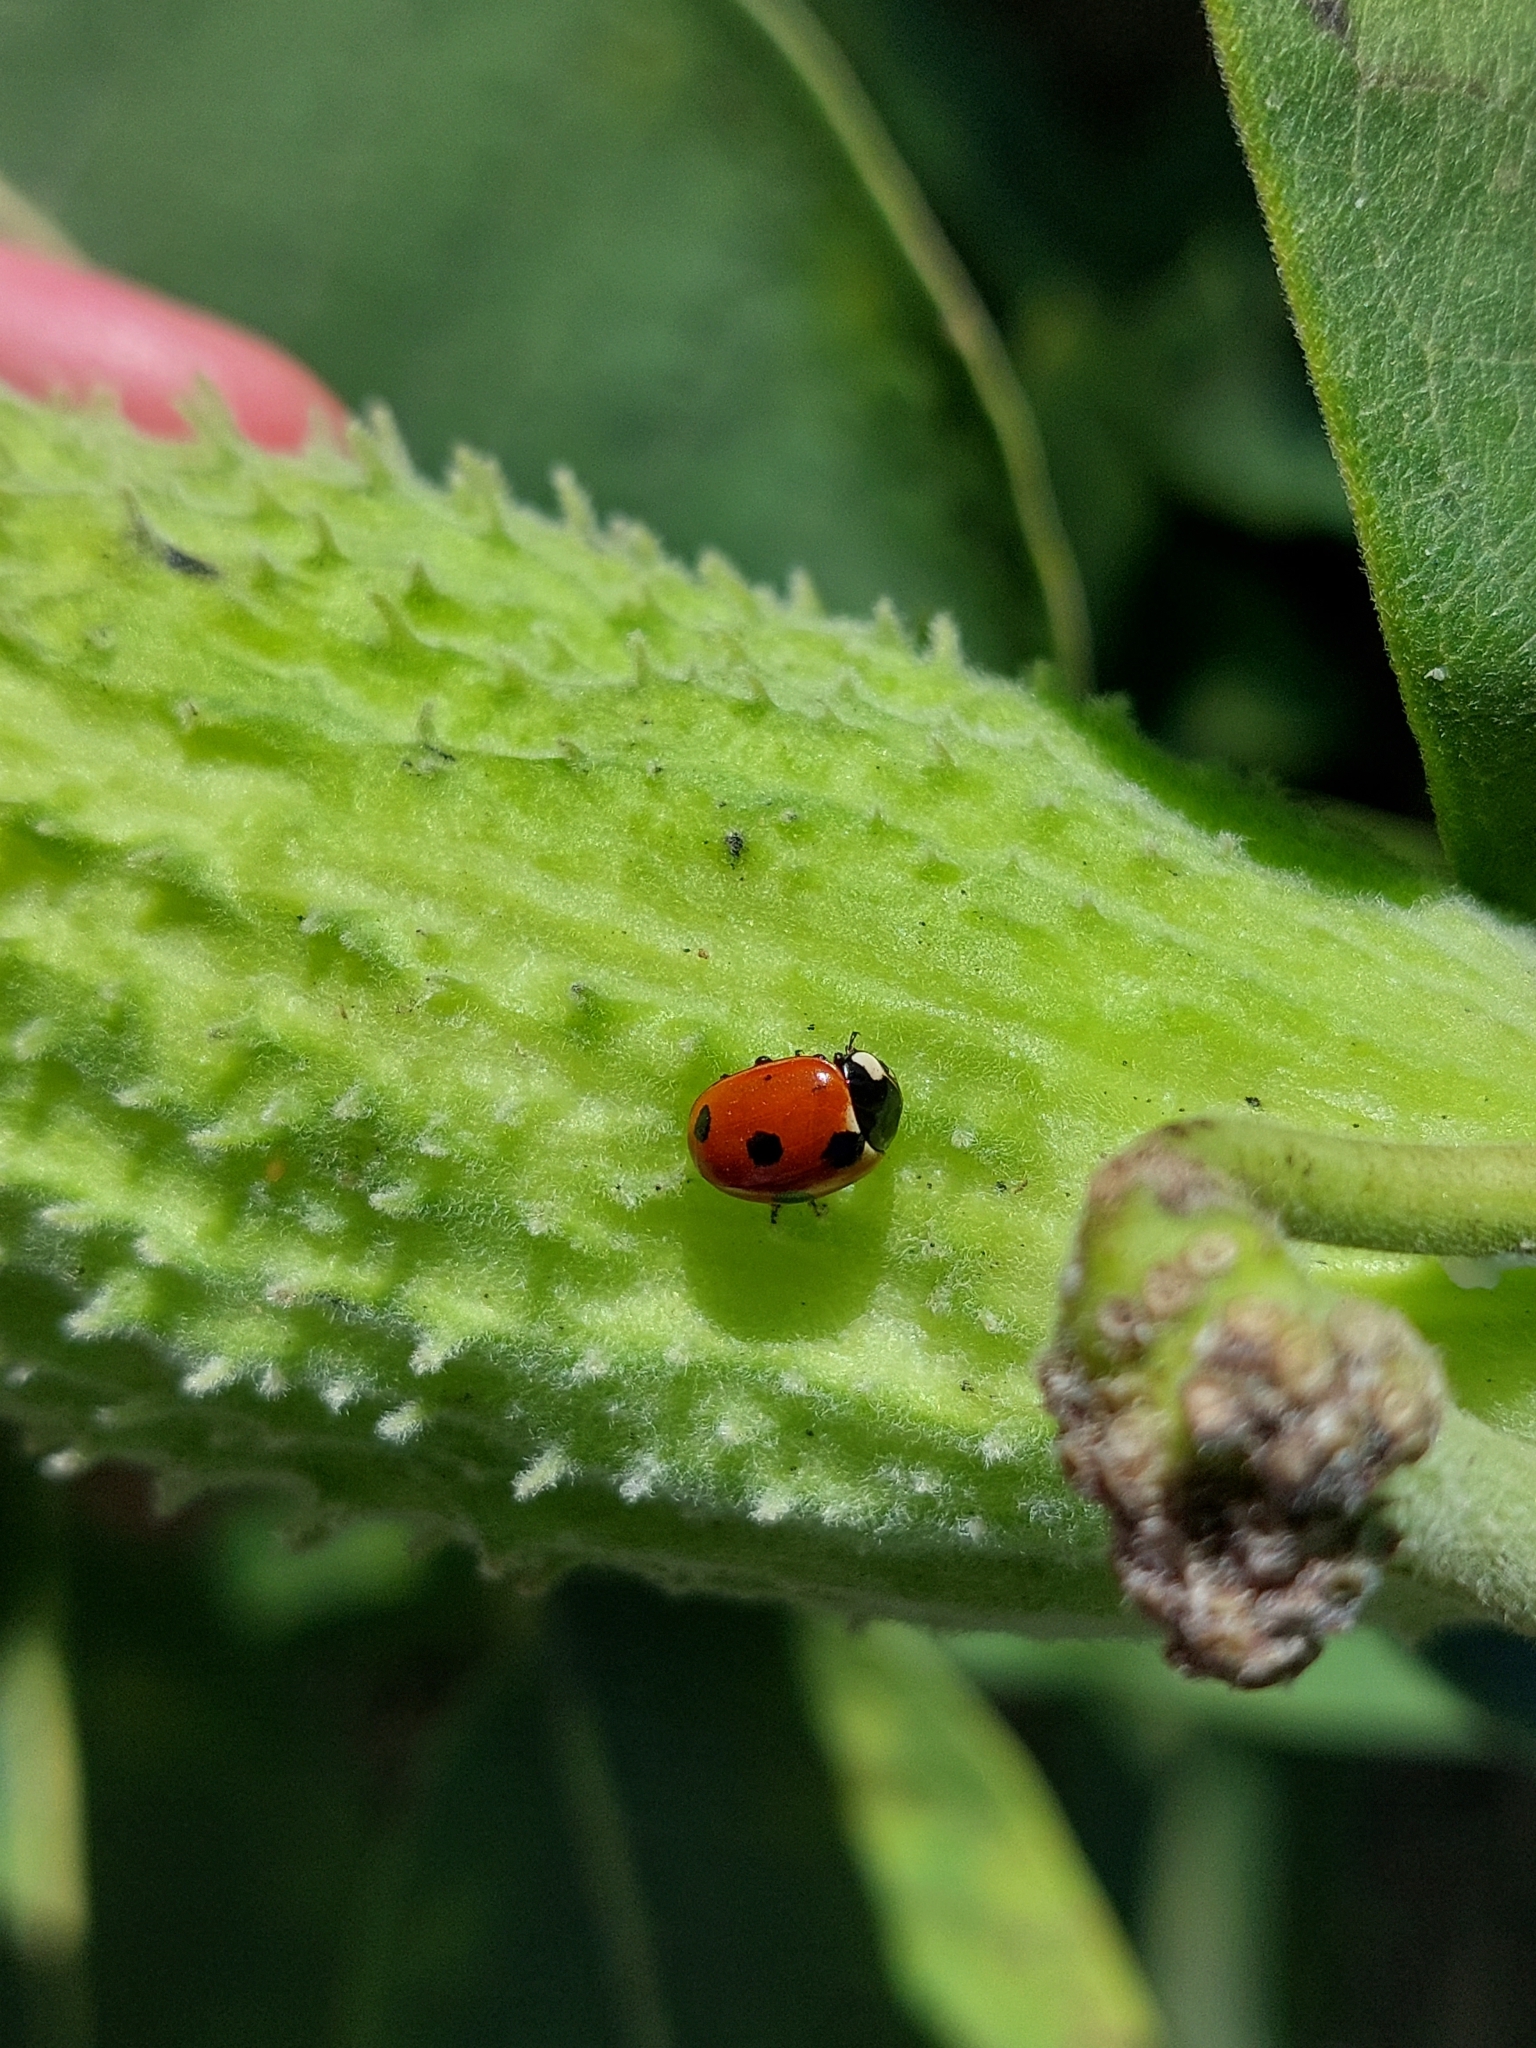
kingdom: Animalia
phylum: Arthropoda
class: Insecta
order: Coleoptera
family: Coccinellidae
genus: Coccinella
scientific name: Coccinella quinquepunctata
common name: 5-spot ladybird
